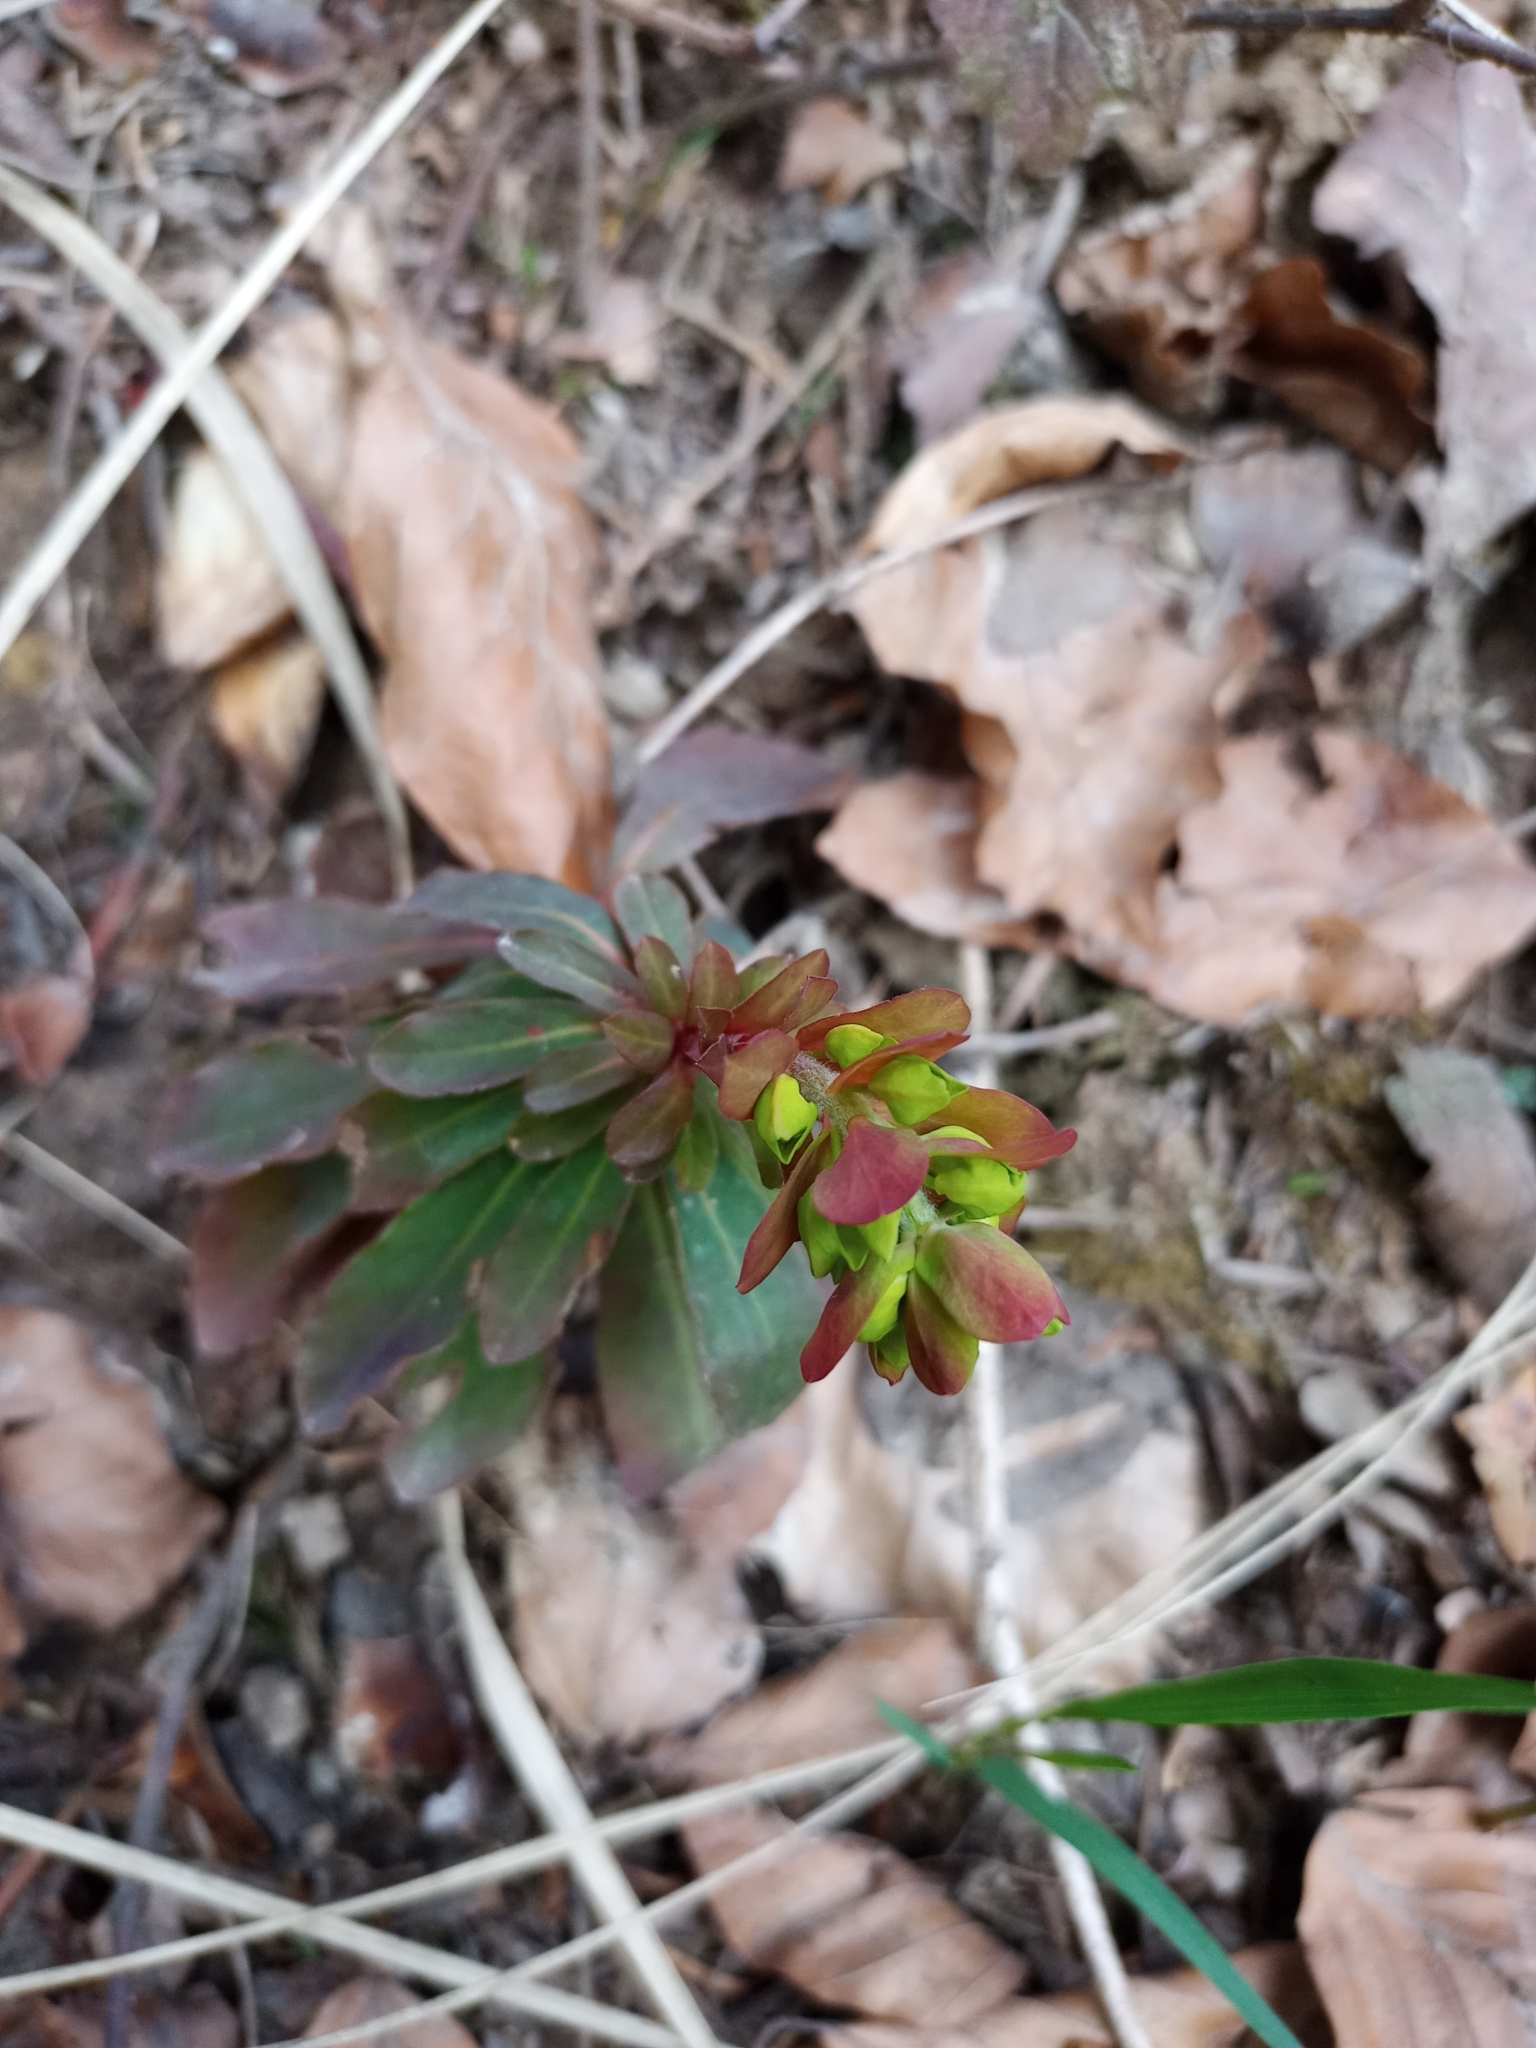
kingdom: Plantae
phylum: Tracheophyta
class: Magnoliopsida
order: Malpighiales
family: Euphorbiaceae
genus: Euphorbia
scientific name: Euphorbia amygdaloides
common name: Wood spurge
